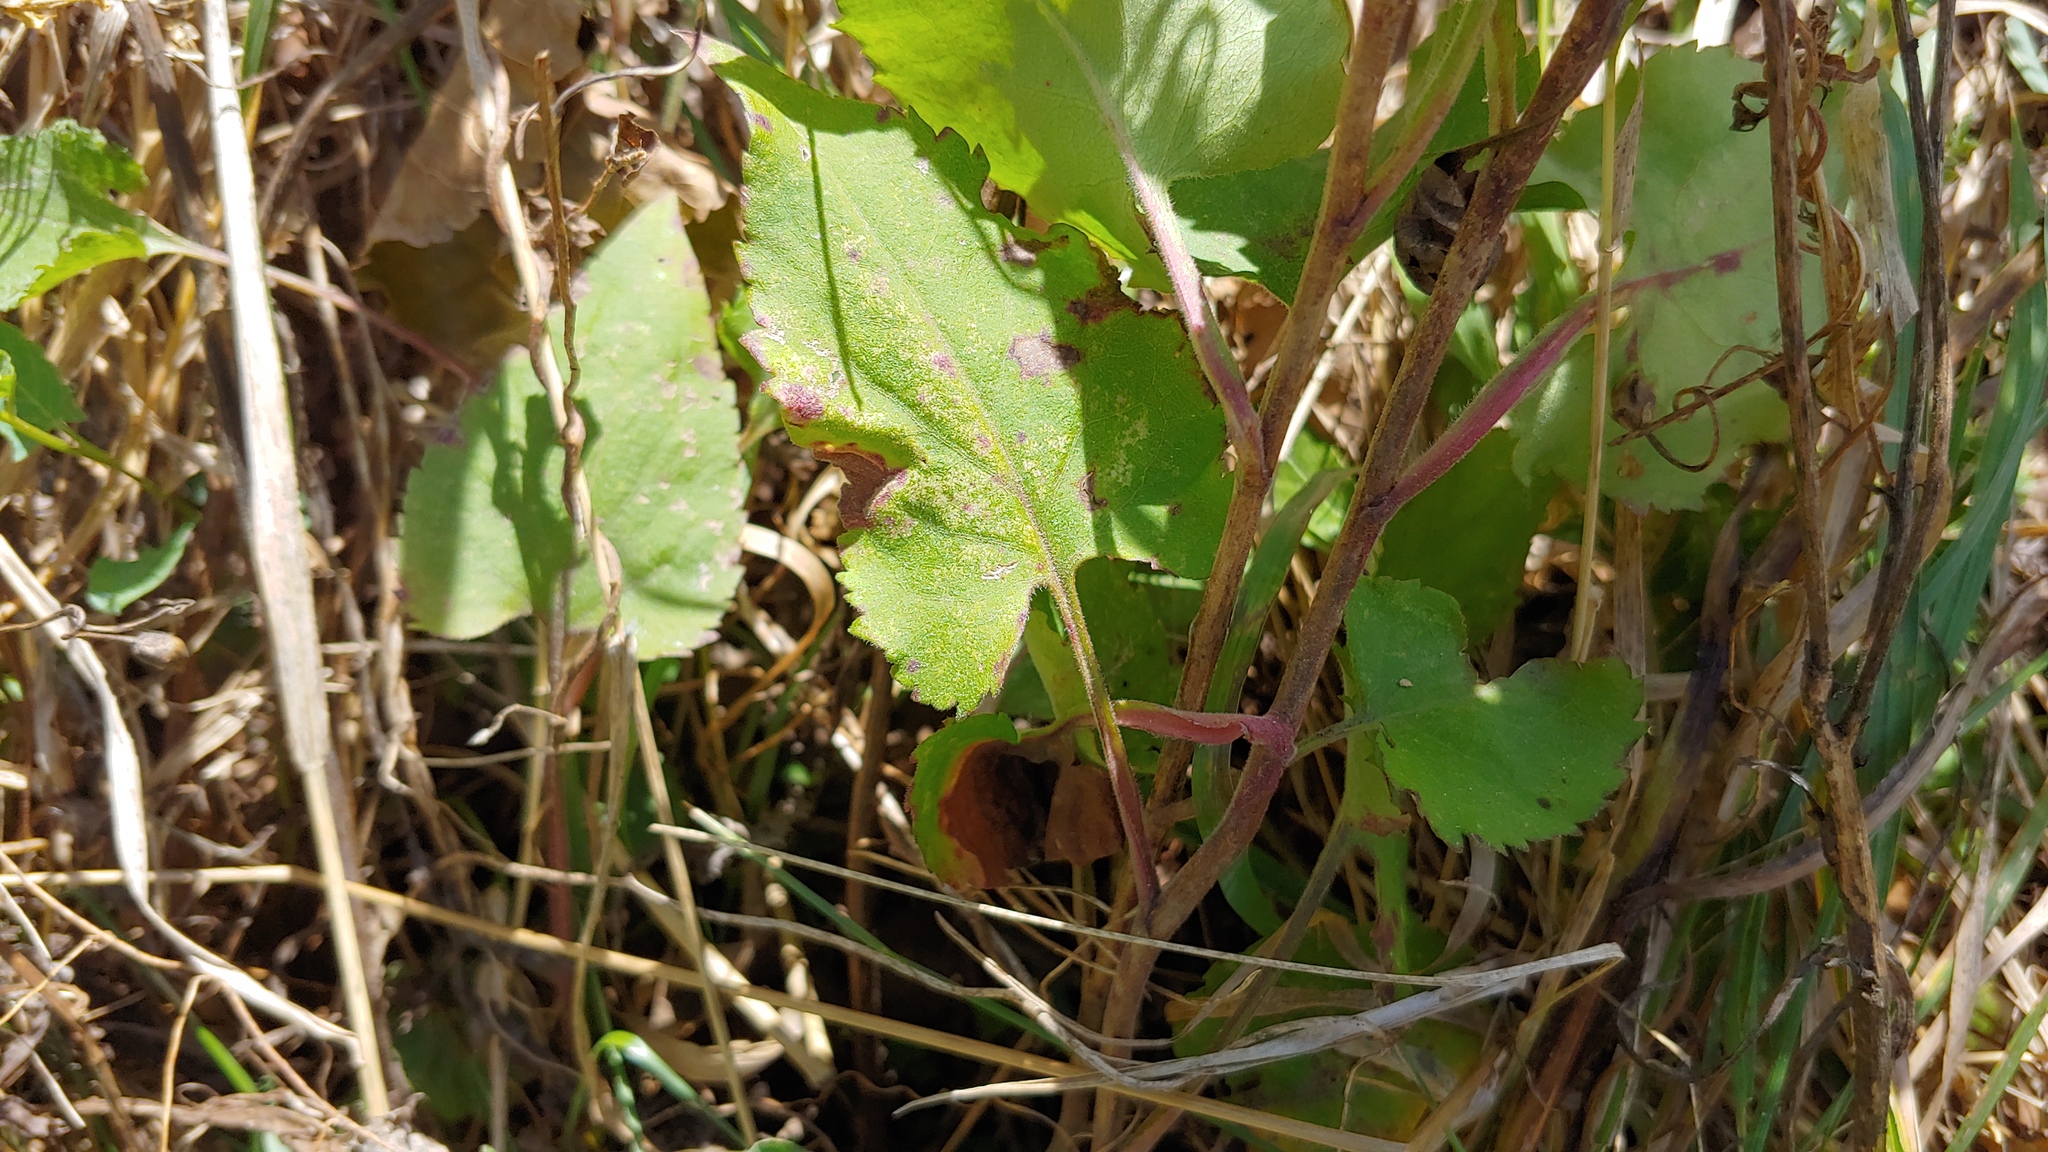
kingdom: Plantae
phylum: Tracheophyta
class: Magnoliopsida
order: Asterales
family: Asteraceae
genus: Symphyotrichum
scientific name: Symphyotrichum cordifolium
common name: Beeweed
